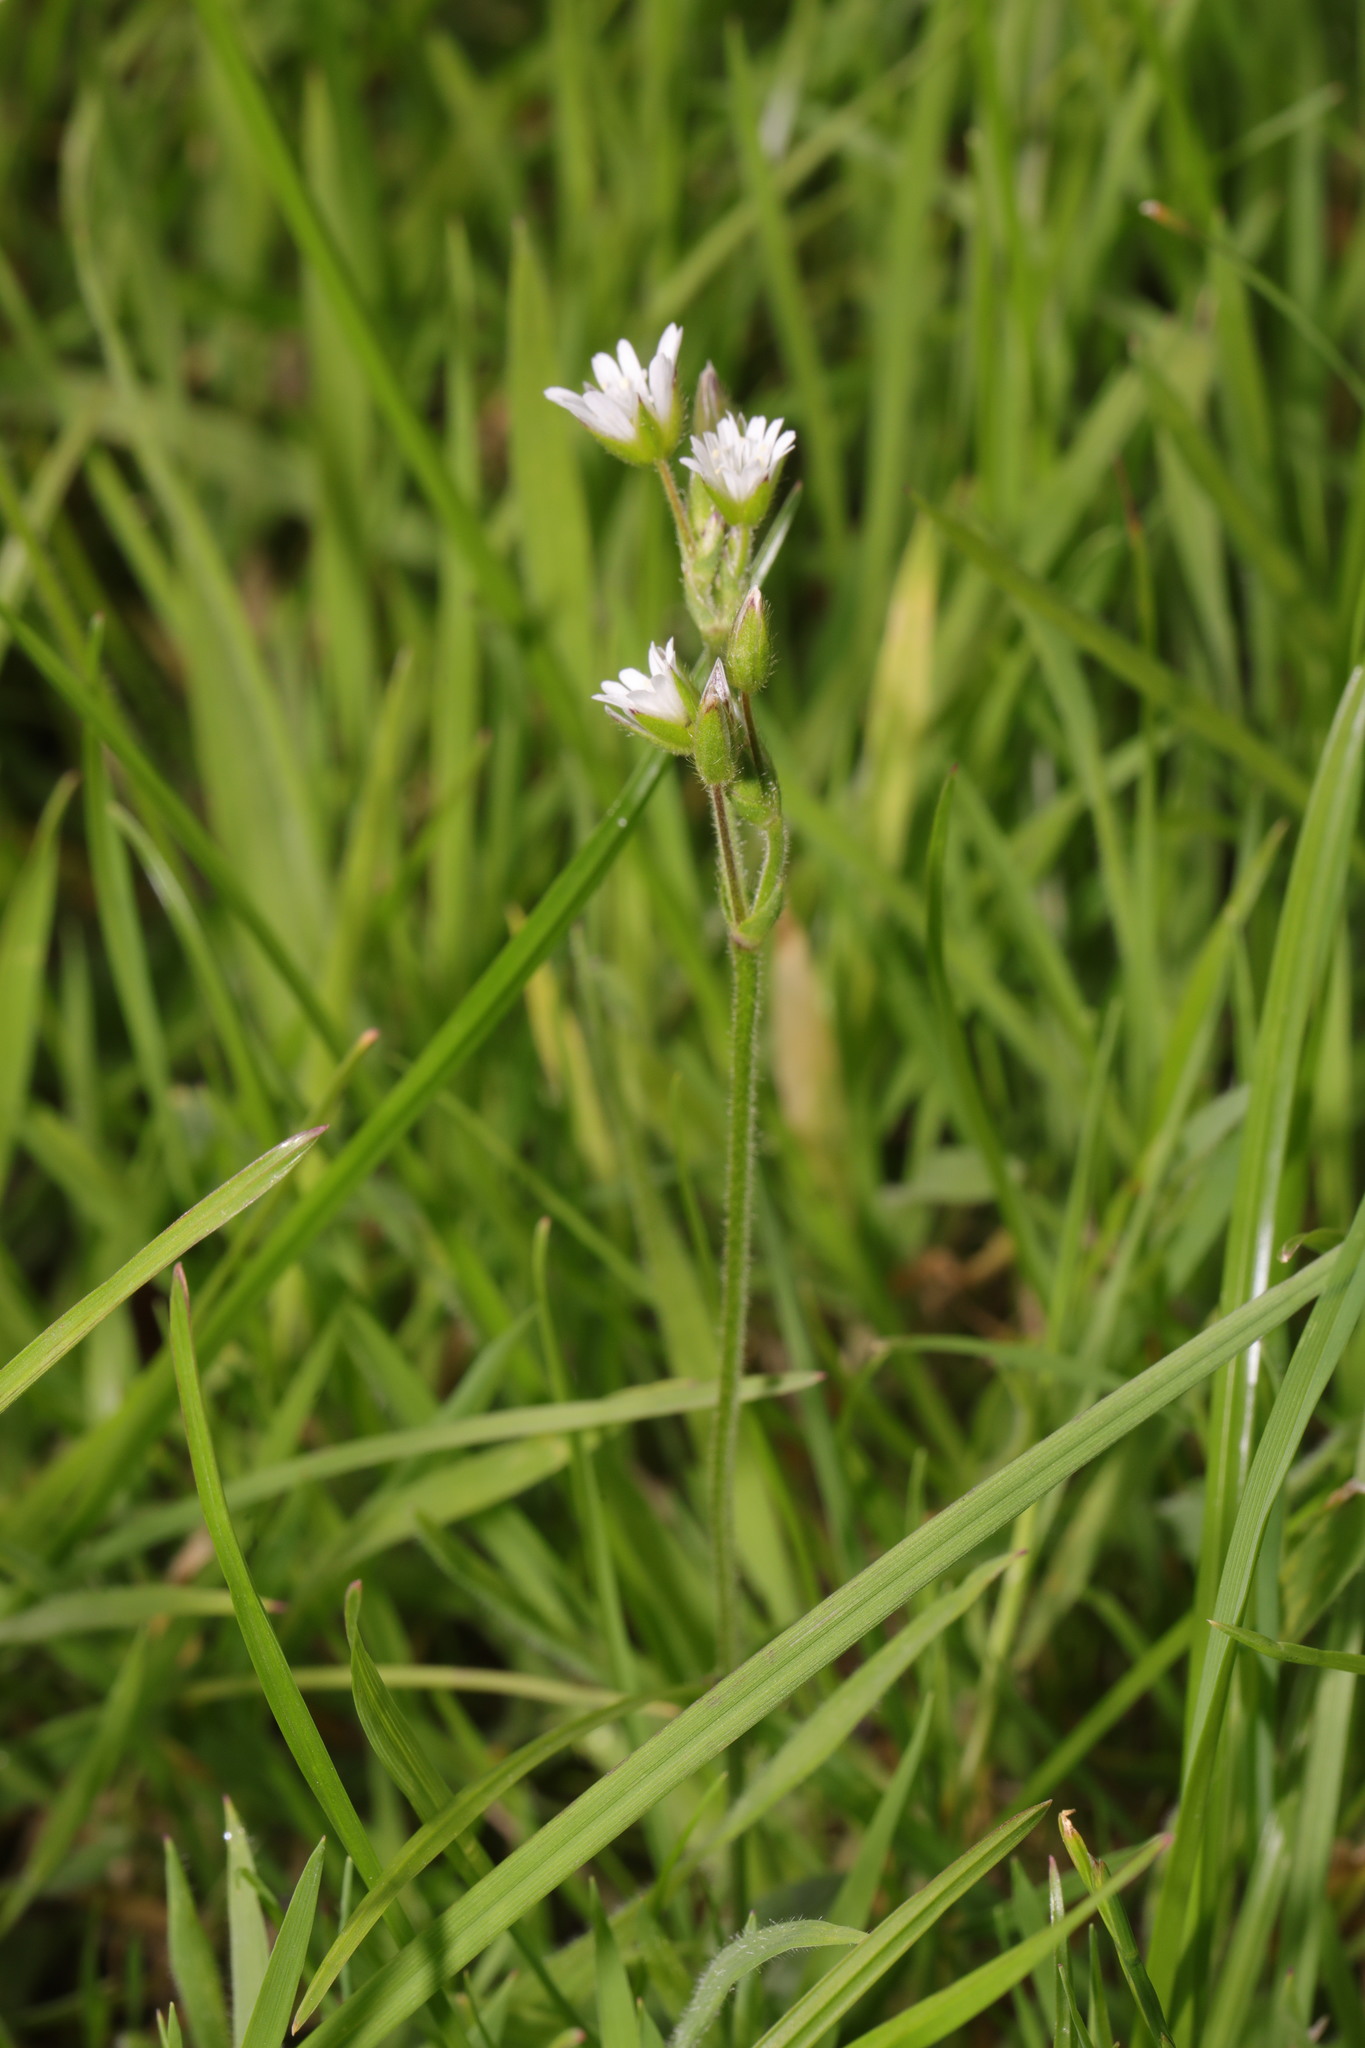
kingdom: Plantae
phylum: Tracheophyta
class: Magnoliopsida
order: Caryophyllales
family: Caryophyllaceae
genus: Cerastium
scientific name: Cerastium fontanum
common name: Common mouse-ear
